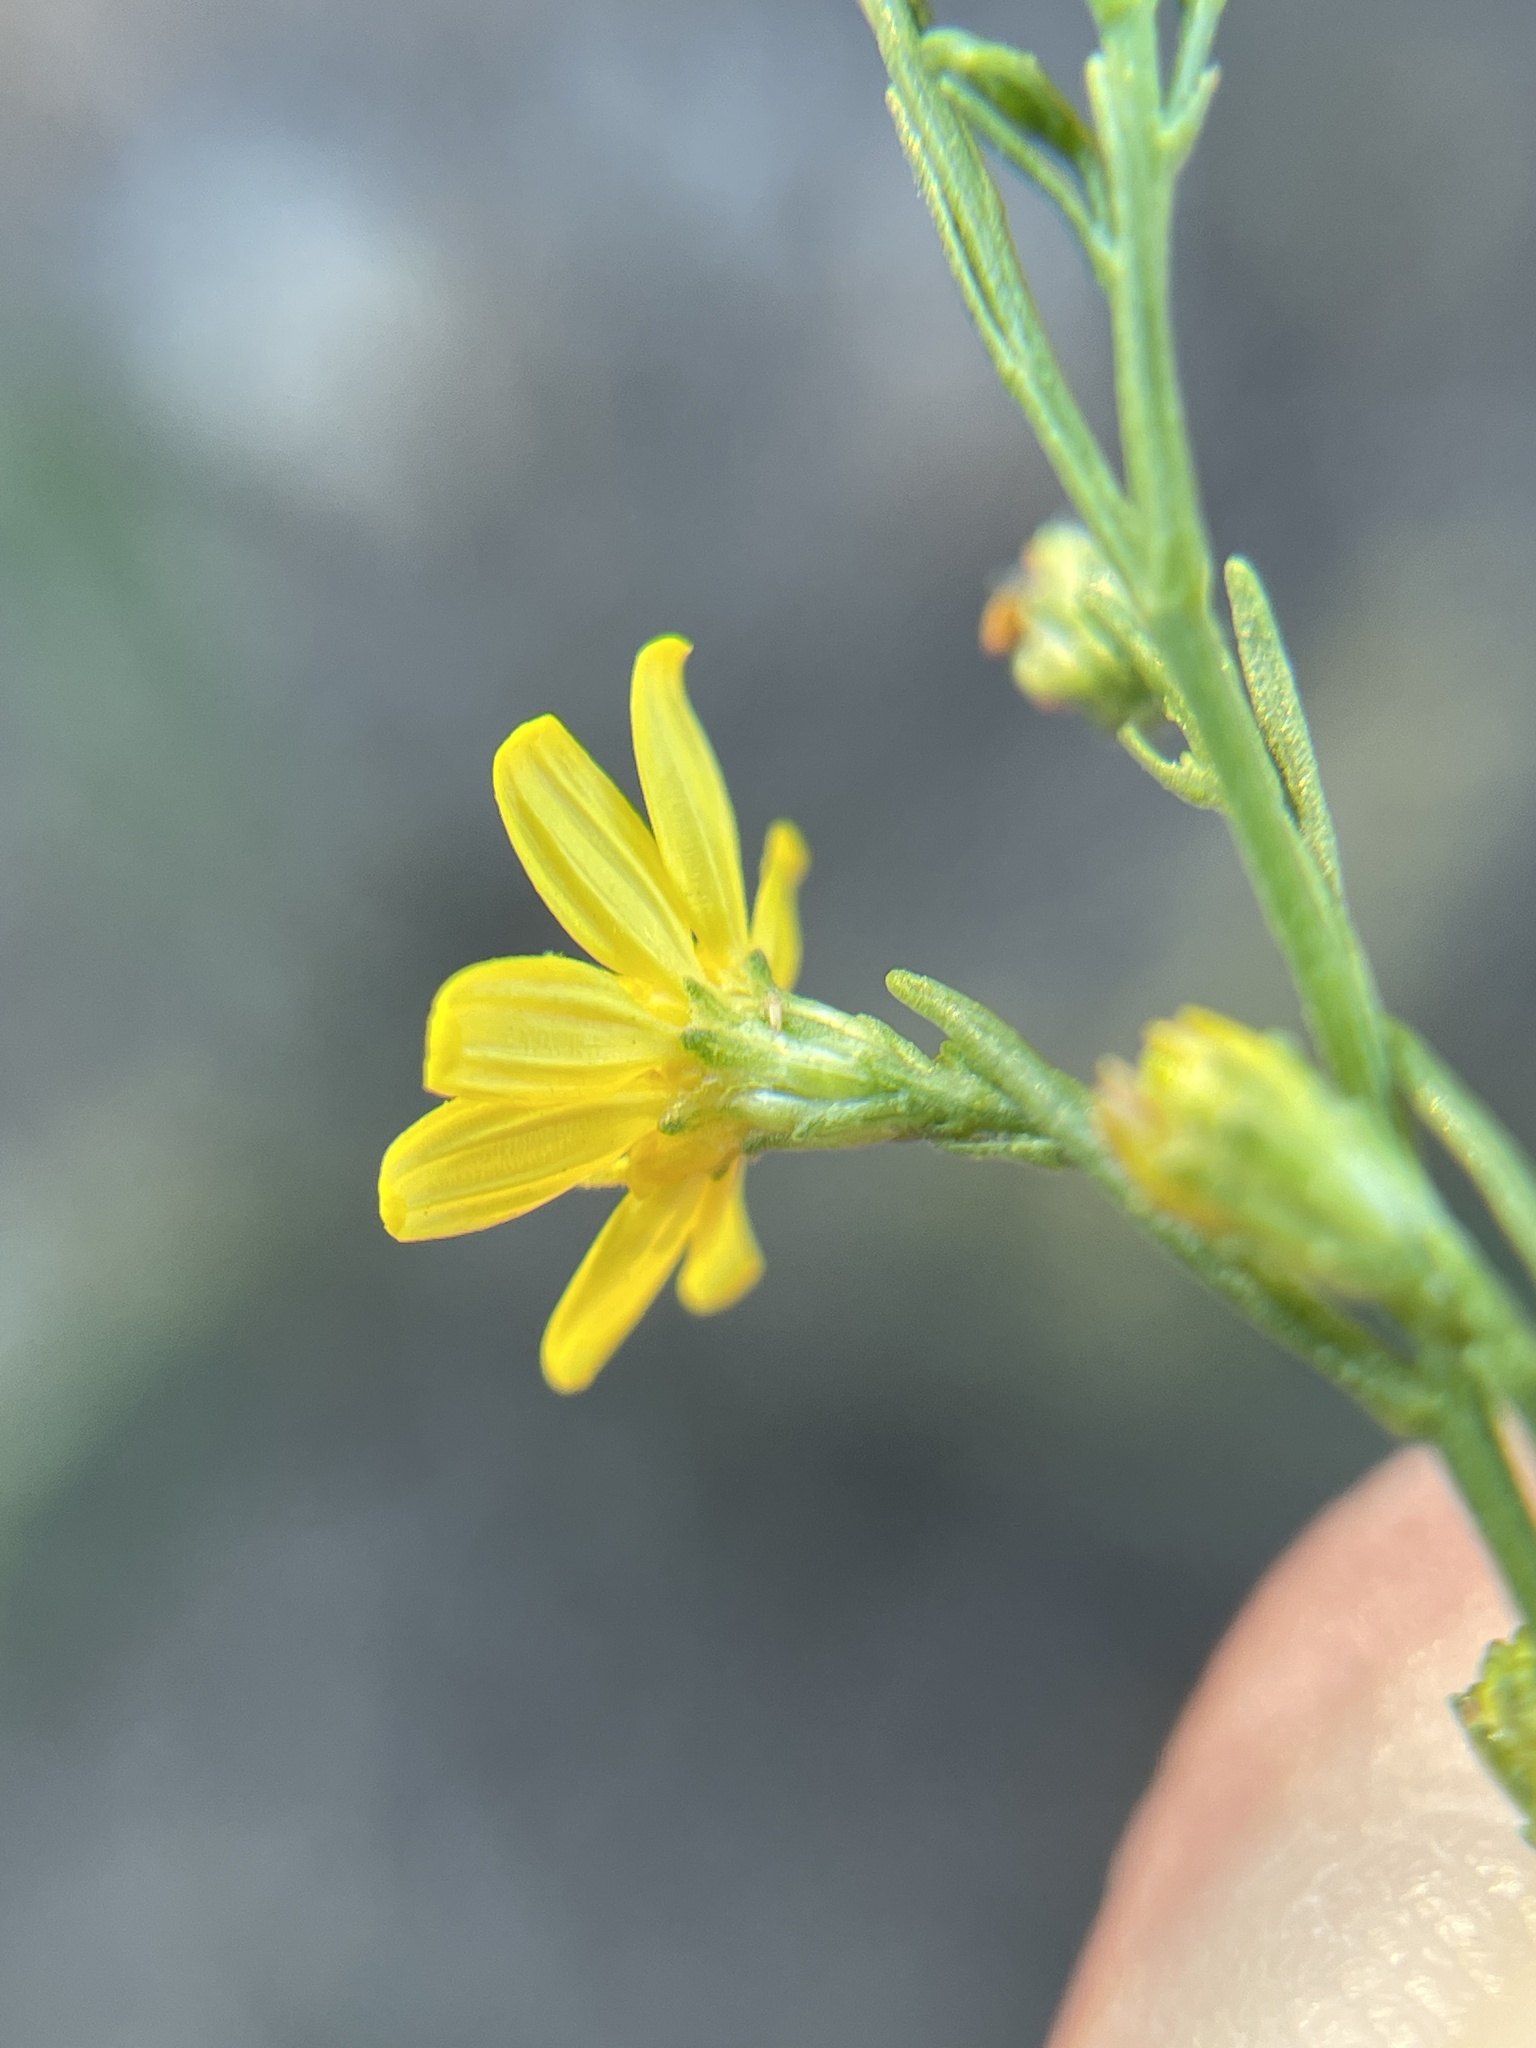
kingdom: Plantae
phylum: Tracheophyta
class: Magnoliopsida
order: Asterales
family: Asteraceae
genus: Gutierrezia
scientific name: Gutierrezia texana
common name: Texas snakeweed
